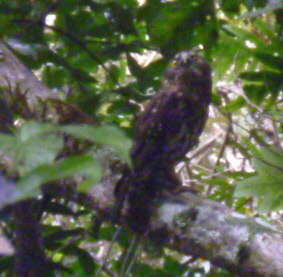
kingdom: Animalia
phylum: Chordata
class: Aves
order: Strigiformes
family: Strigidae
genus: Ninox
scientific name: Ninox novaeseelandiae
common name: Morepork
